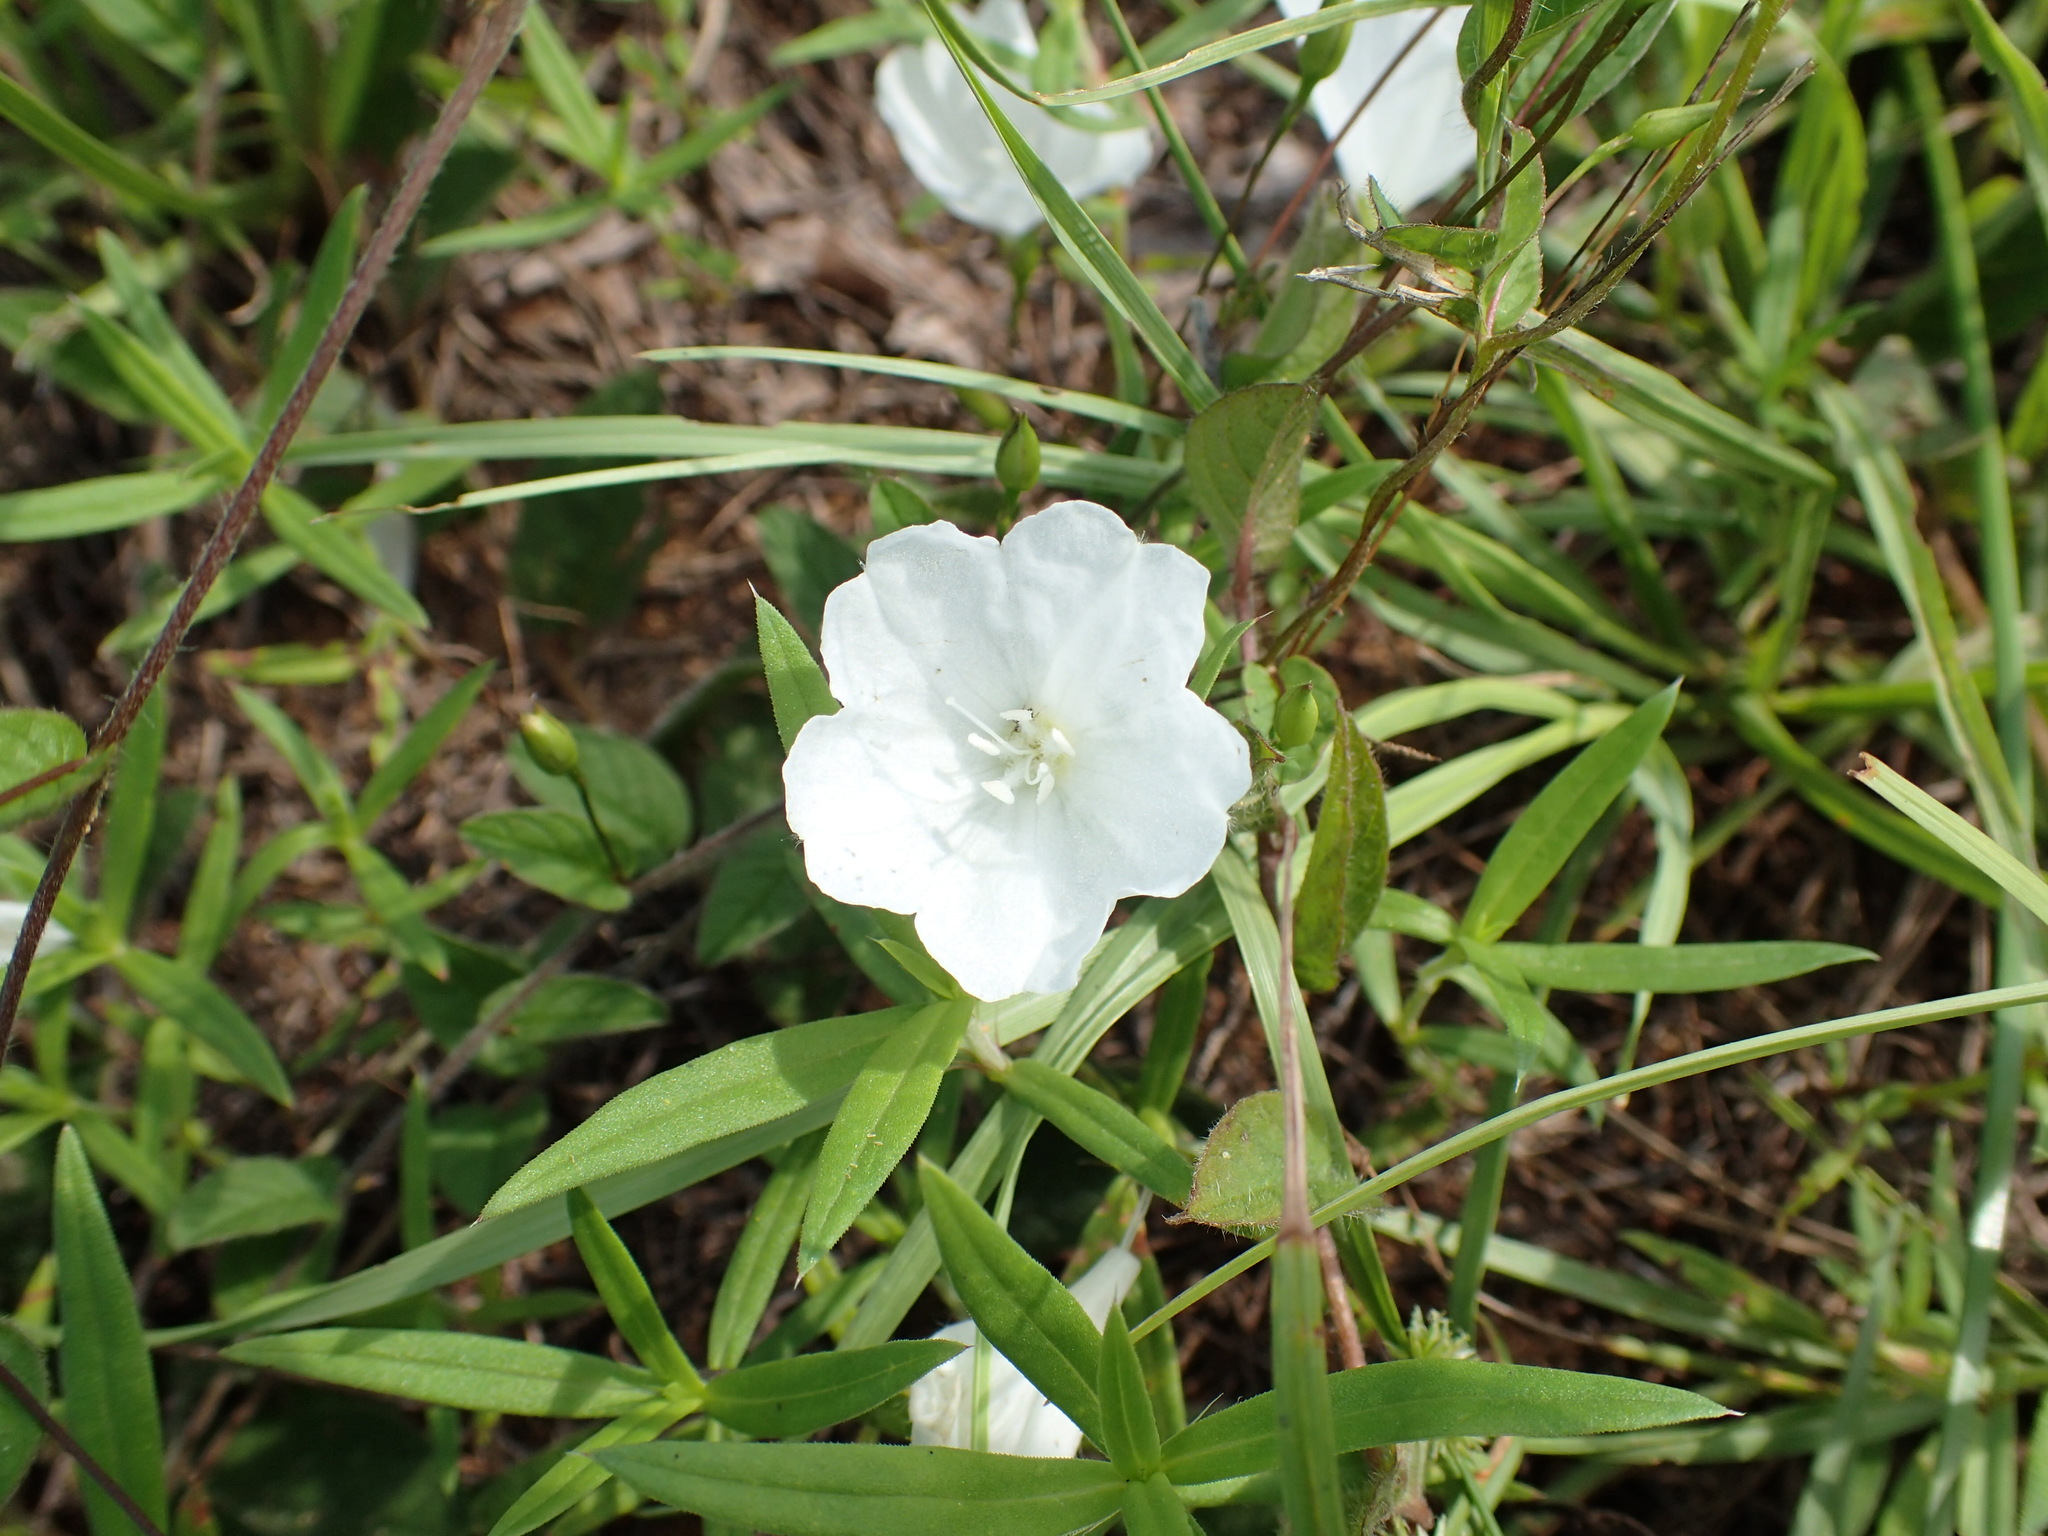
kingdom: Plantae
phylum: Tracheophyta
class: Magnoliopsida
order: Solanales
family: Convolvulaceae
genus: Stylisma
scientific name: Stylisma humistrata
